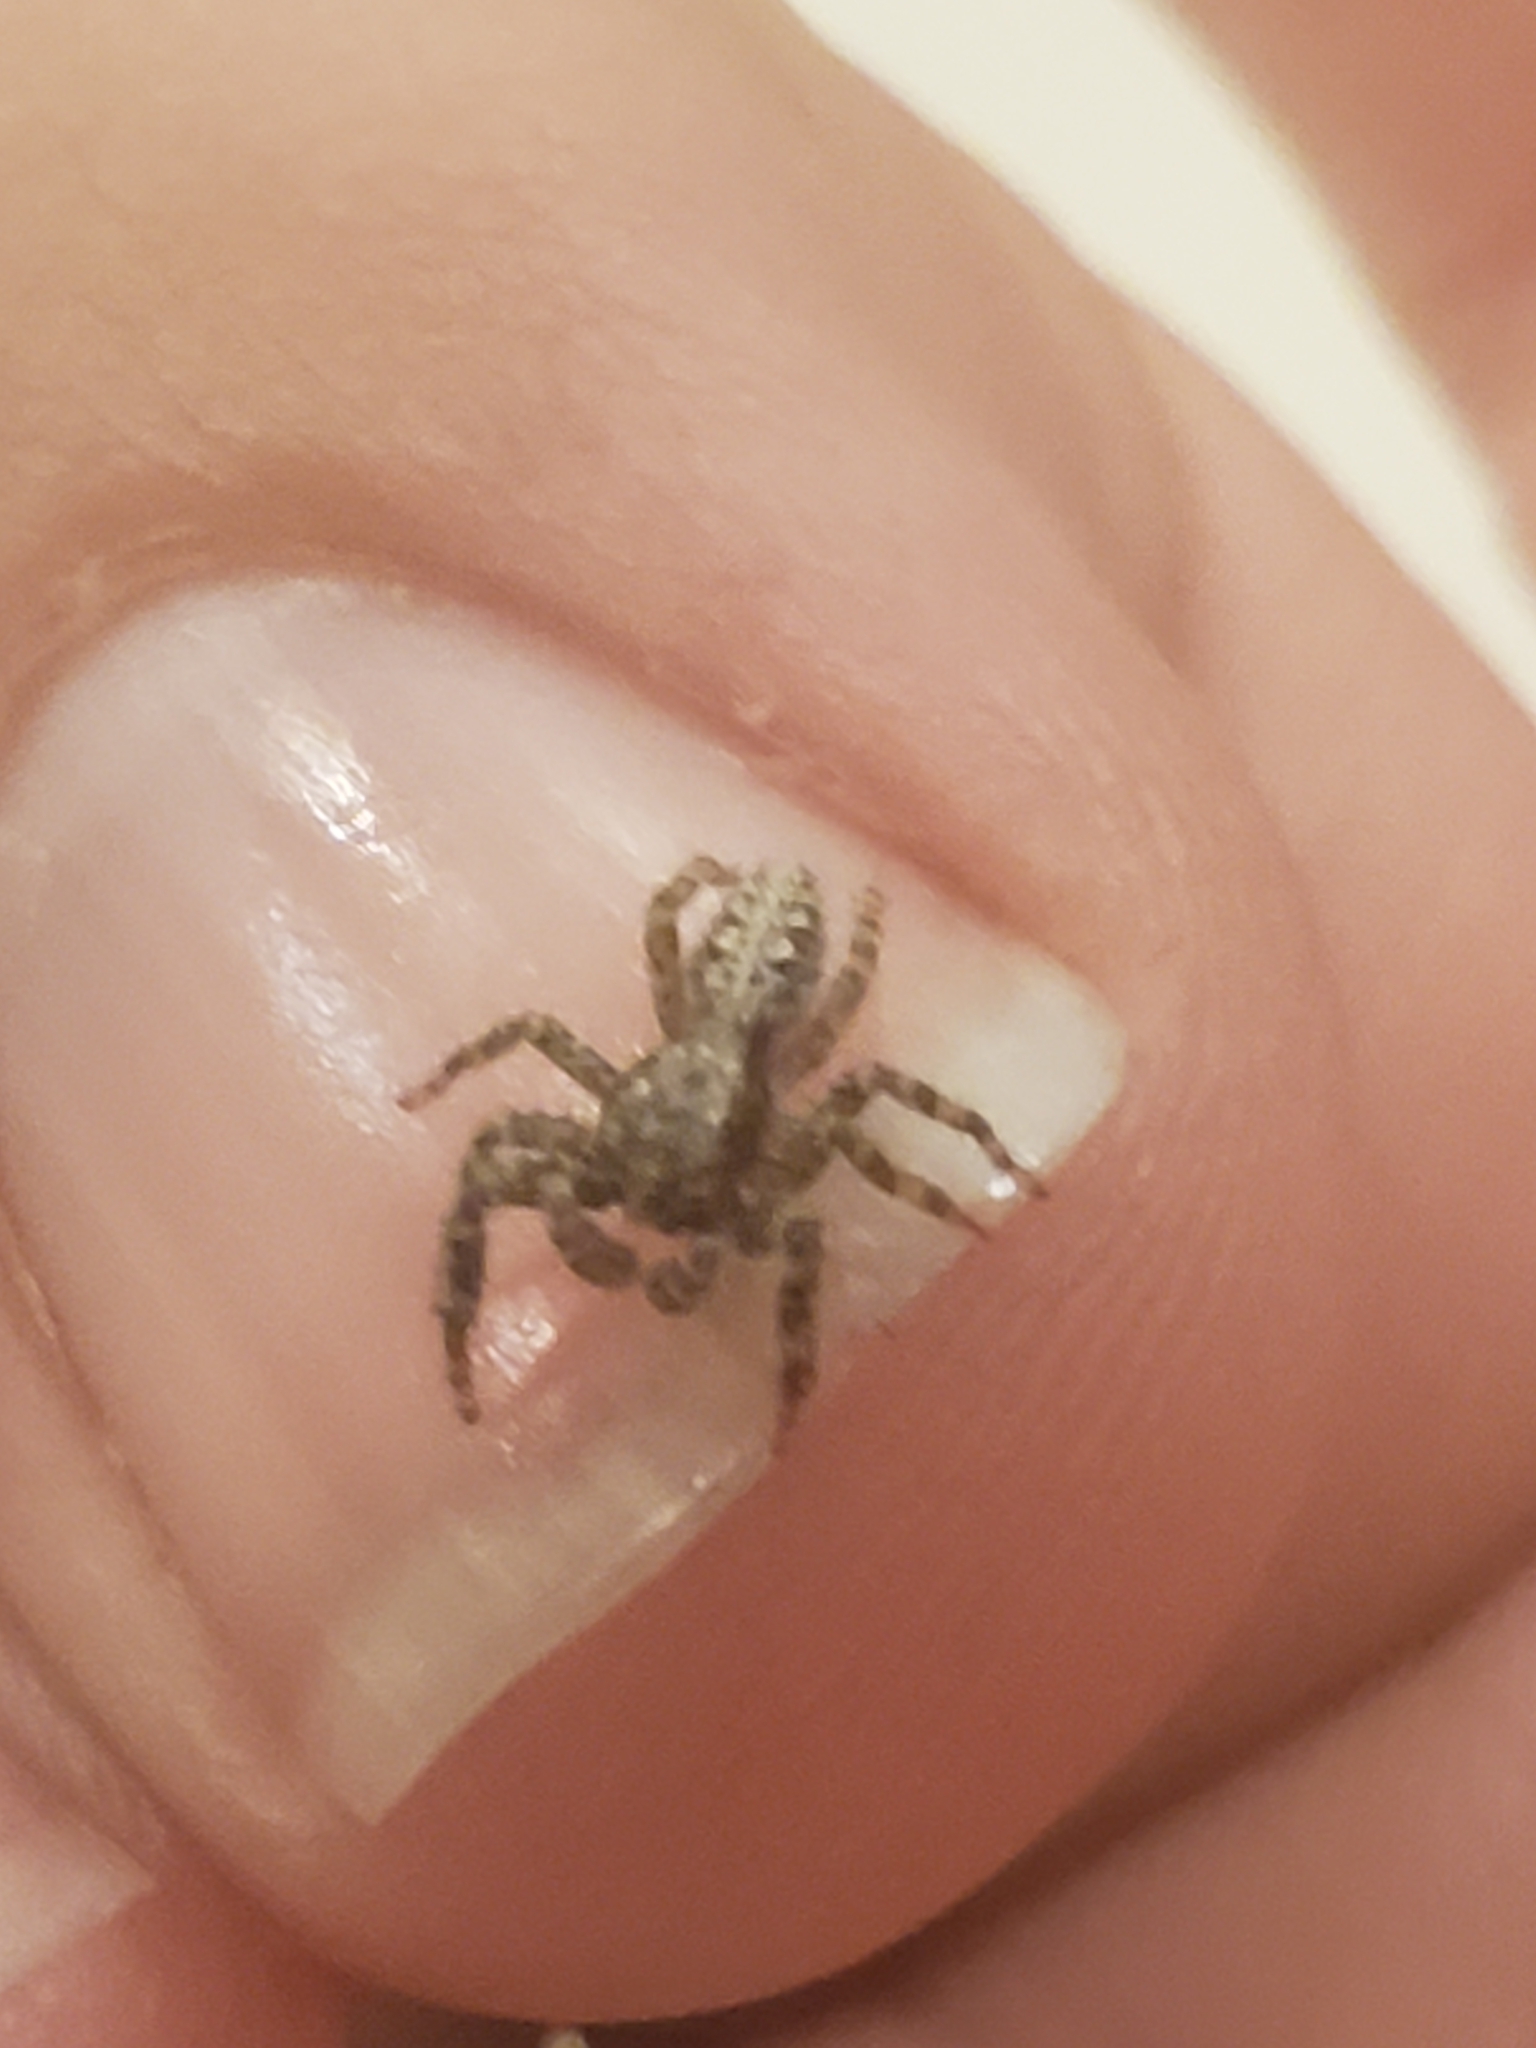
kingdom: Animalia
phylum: Arthropoda
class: Arachnida
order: Araneae
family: Salticidae
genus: Platycryptus
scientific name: Platycryptus californicus
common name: Jumping spiders
